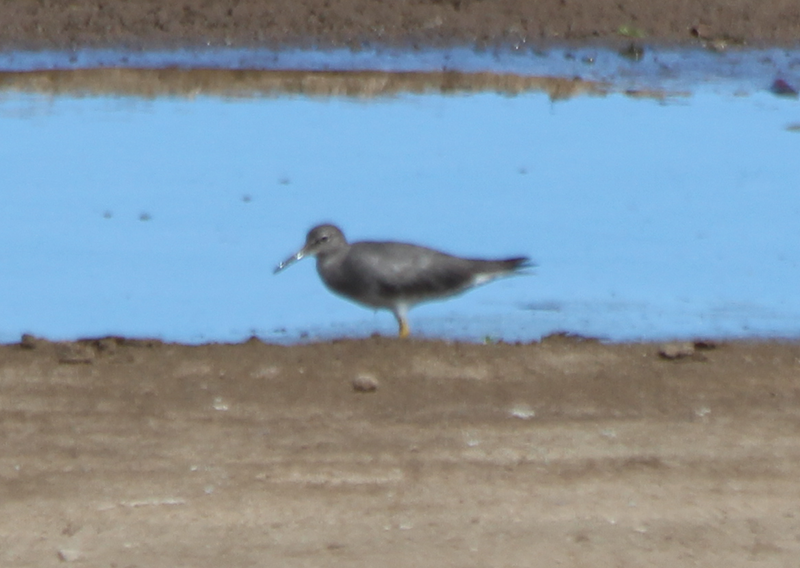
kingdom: Animalia
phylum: Chordata
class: Aves
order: Charadriiformes
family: Scolopacidae
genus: Tringa
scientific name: Tringa incana
